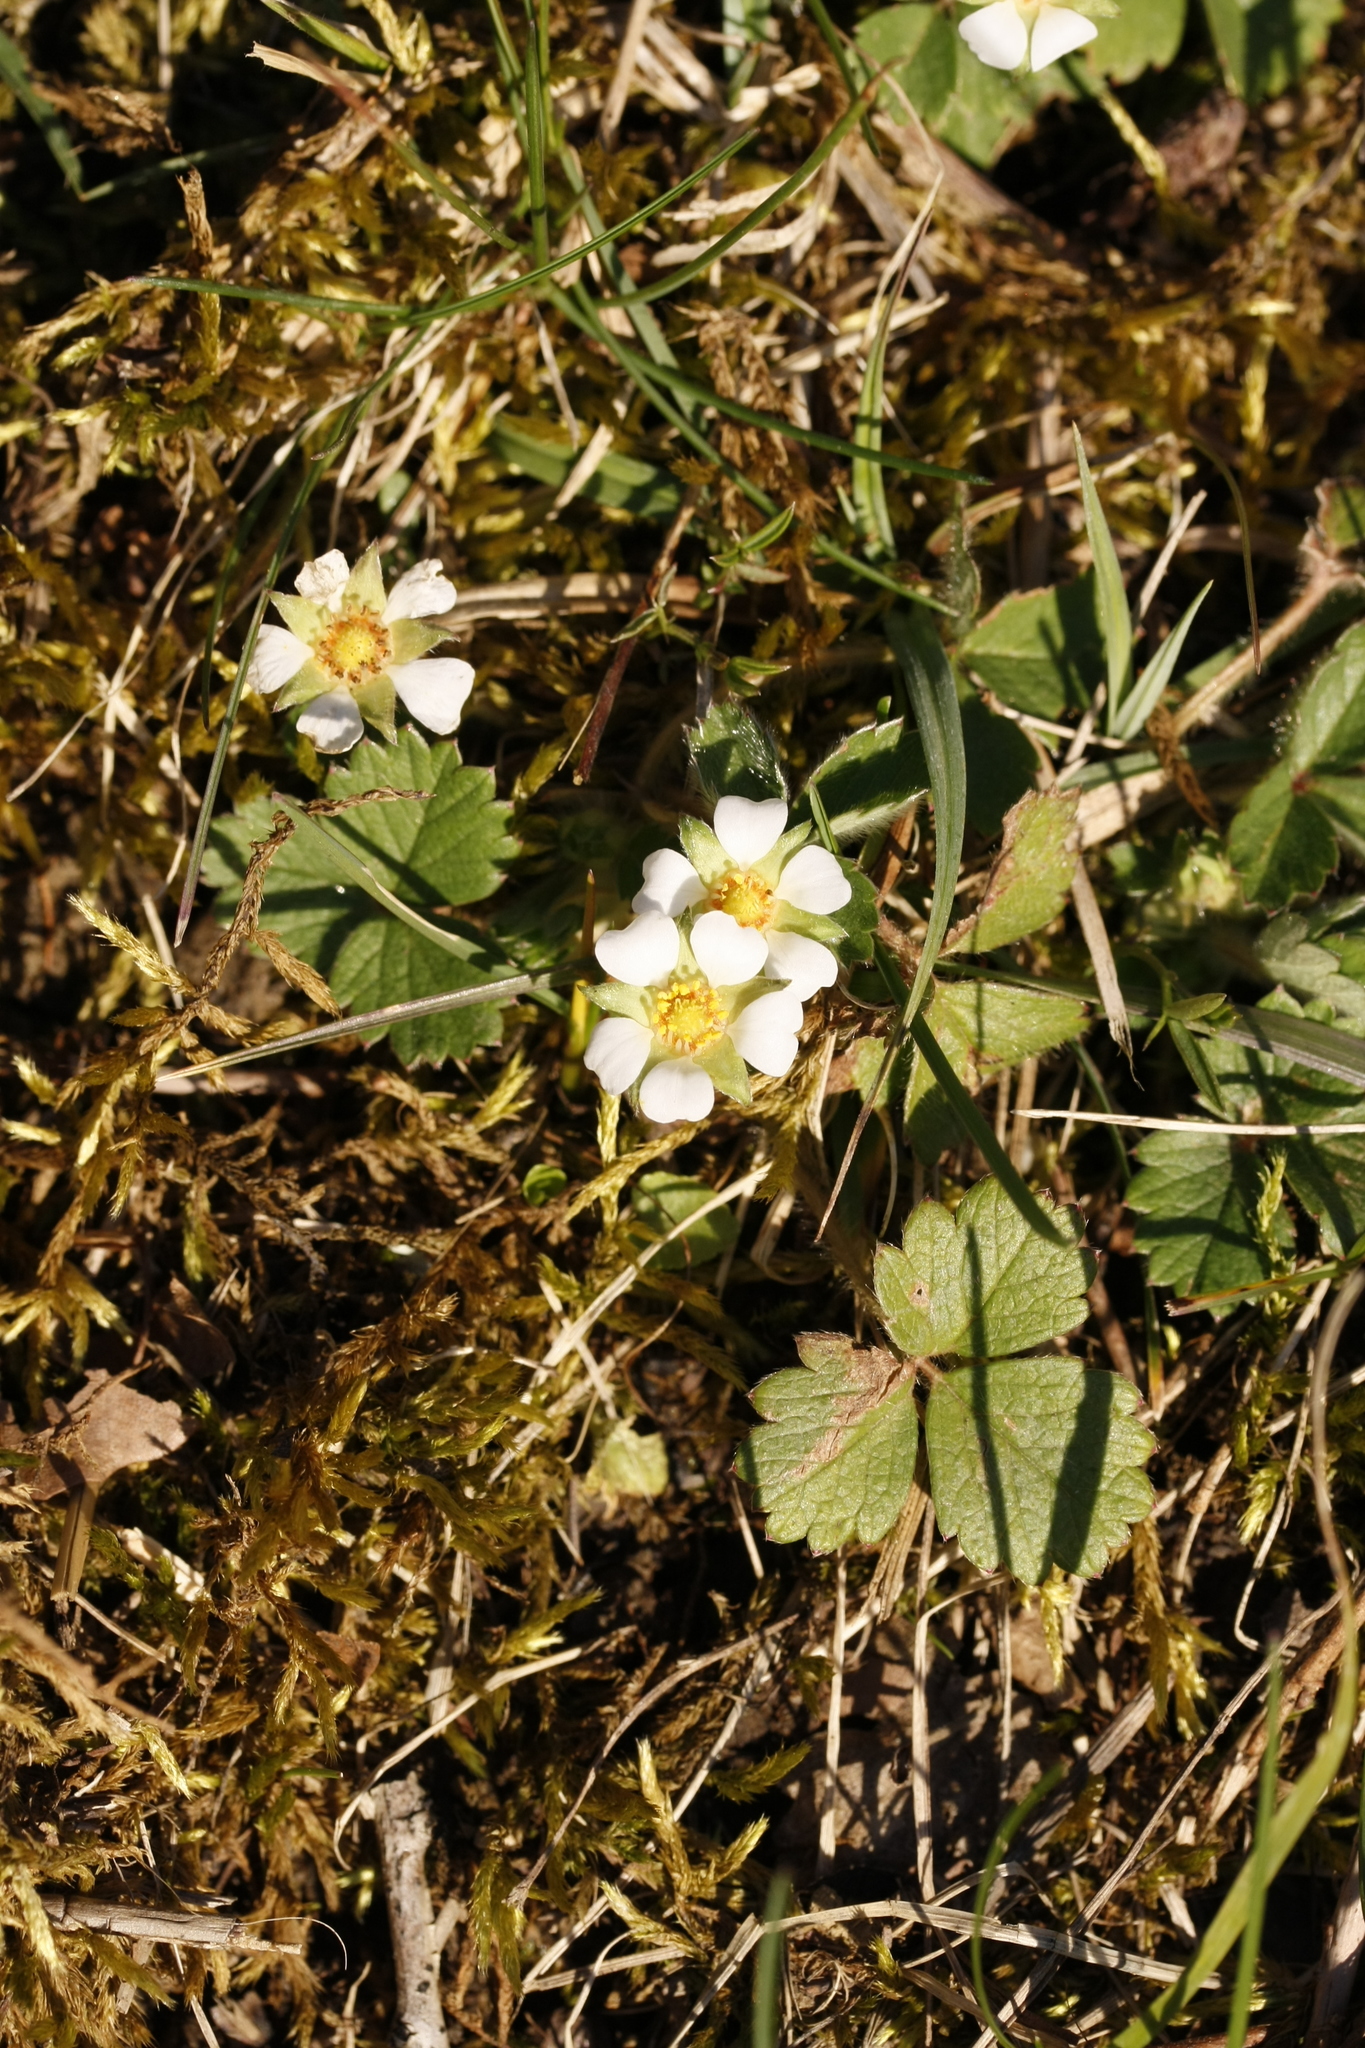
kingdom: Plantae
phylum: Tracheophyta
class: Magnoliopsida
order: Rosales
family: Rosaceae
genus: Potentilla
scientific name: Potentilla sterilis
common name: Barren strawberry
